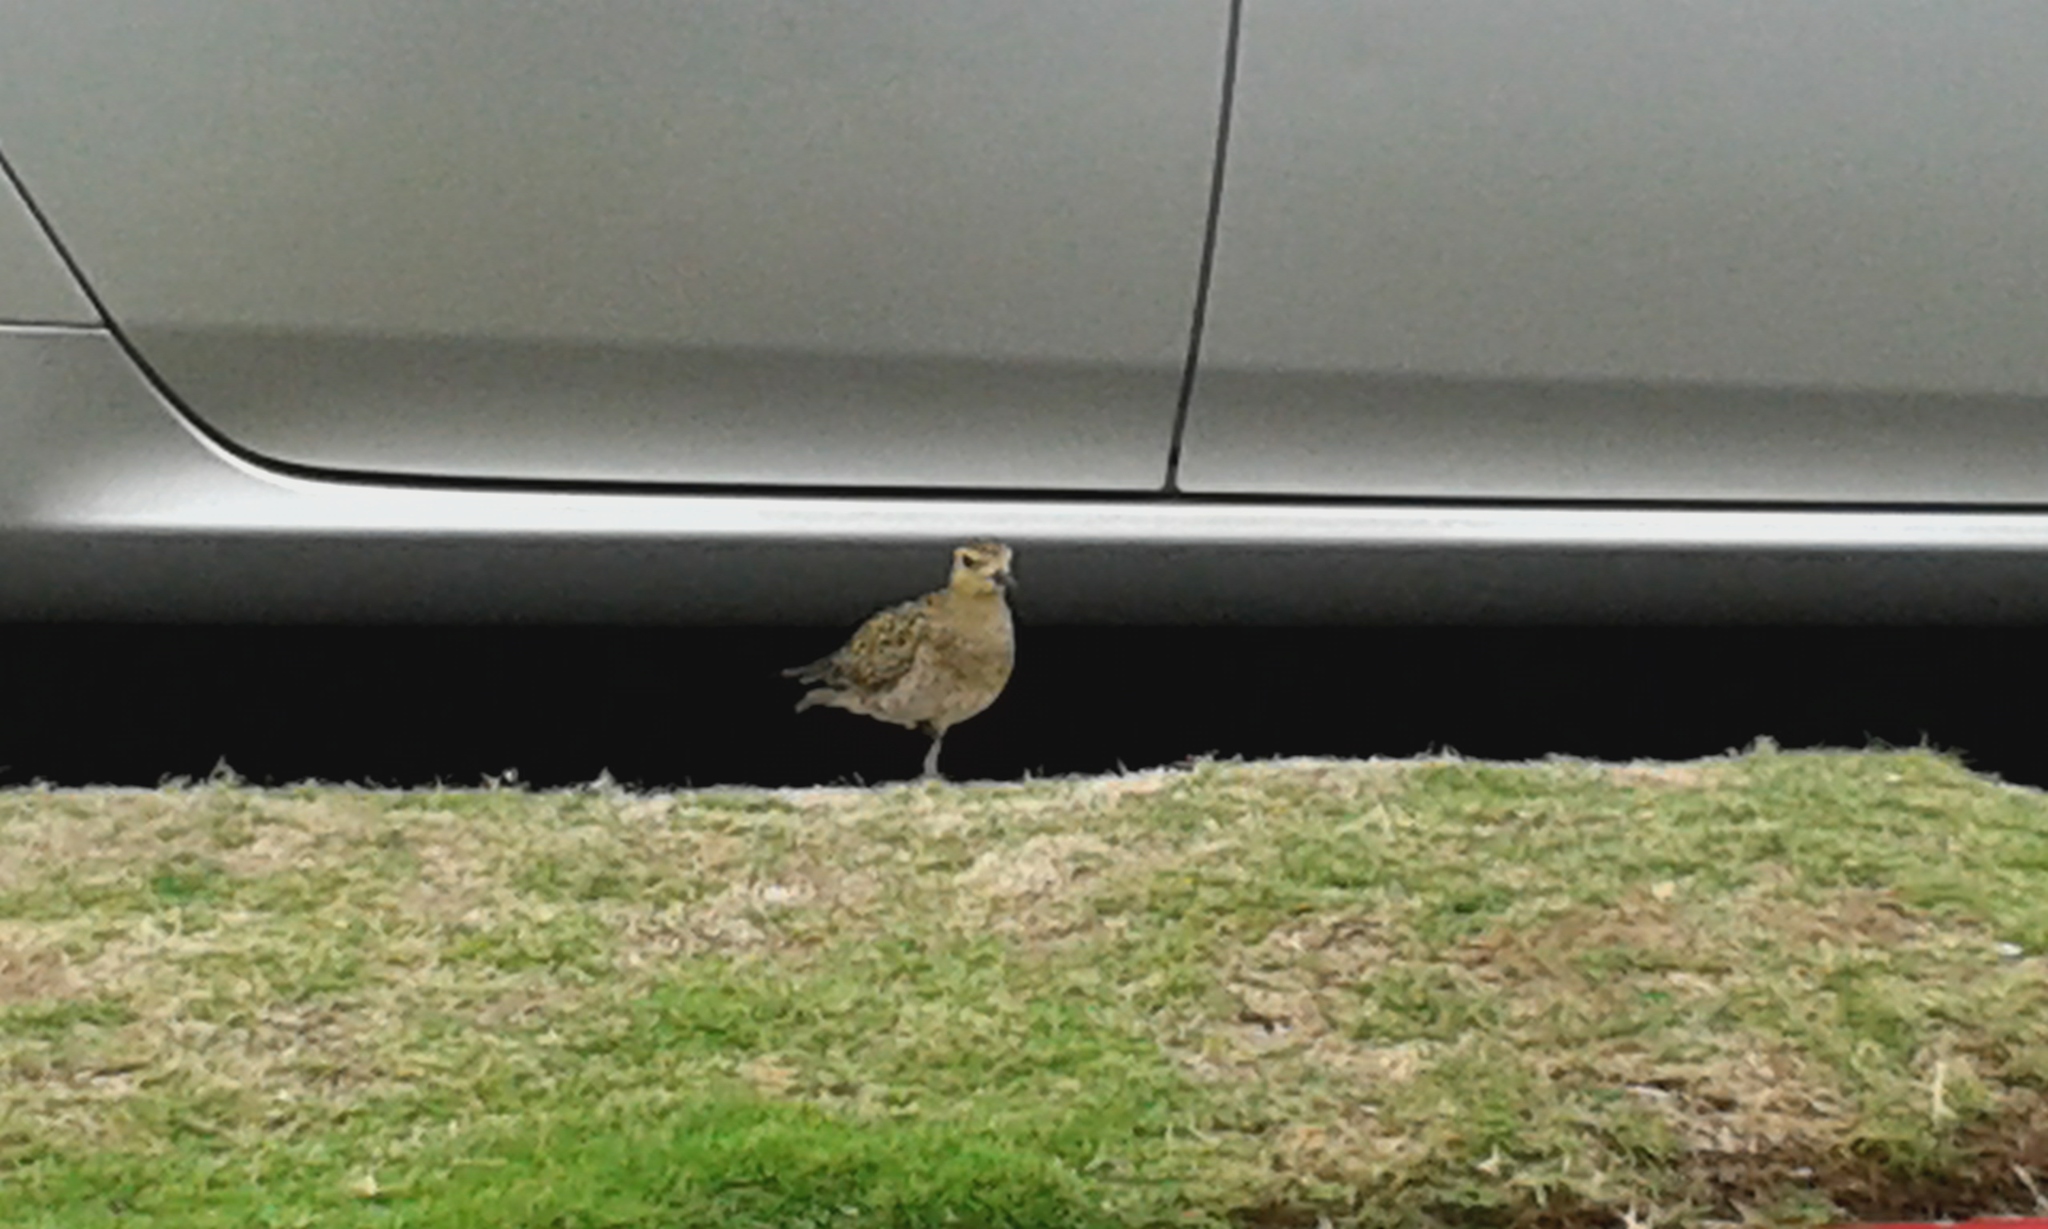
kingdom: Animalia
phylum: Chordata
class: Aves
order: Charadriiformes
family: Charadriidae
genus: Pluvialis
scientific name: Pluvialis fulva
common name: Pacific golden plover
